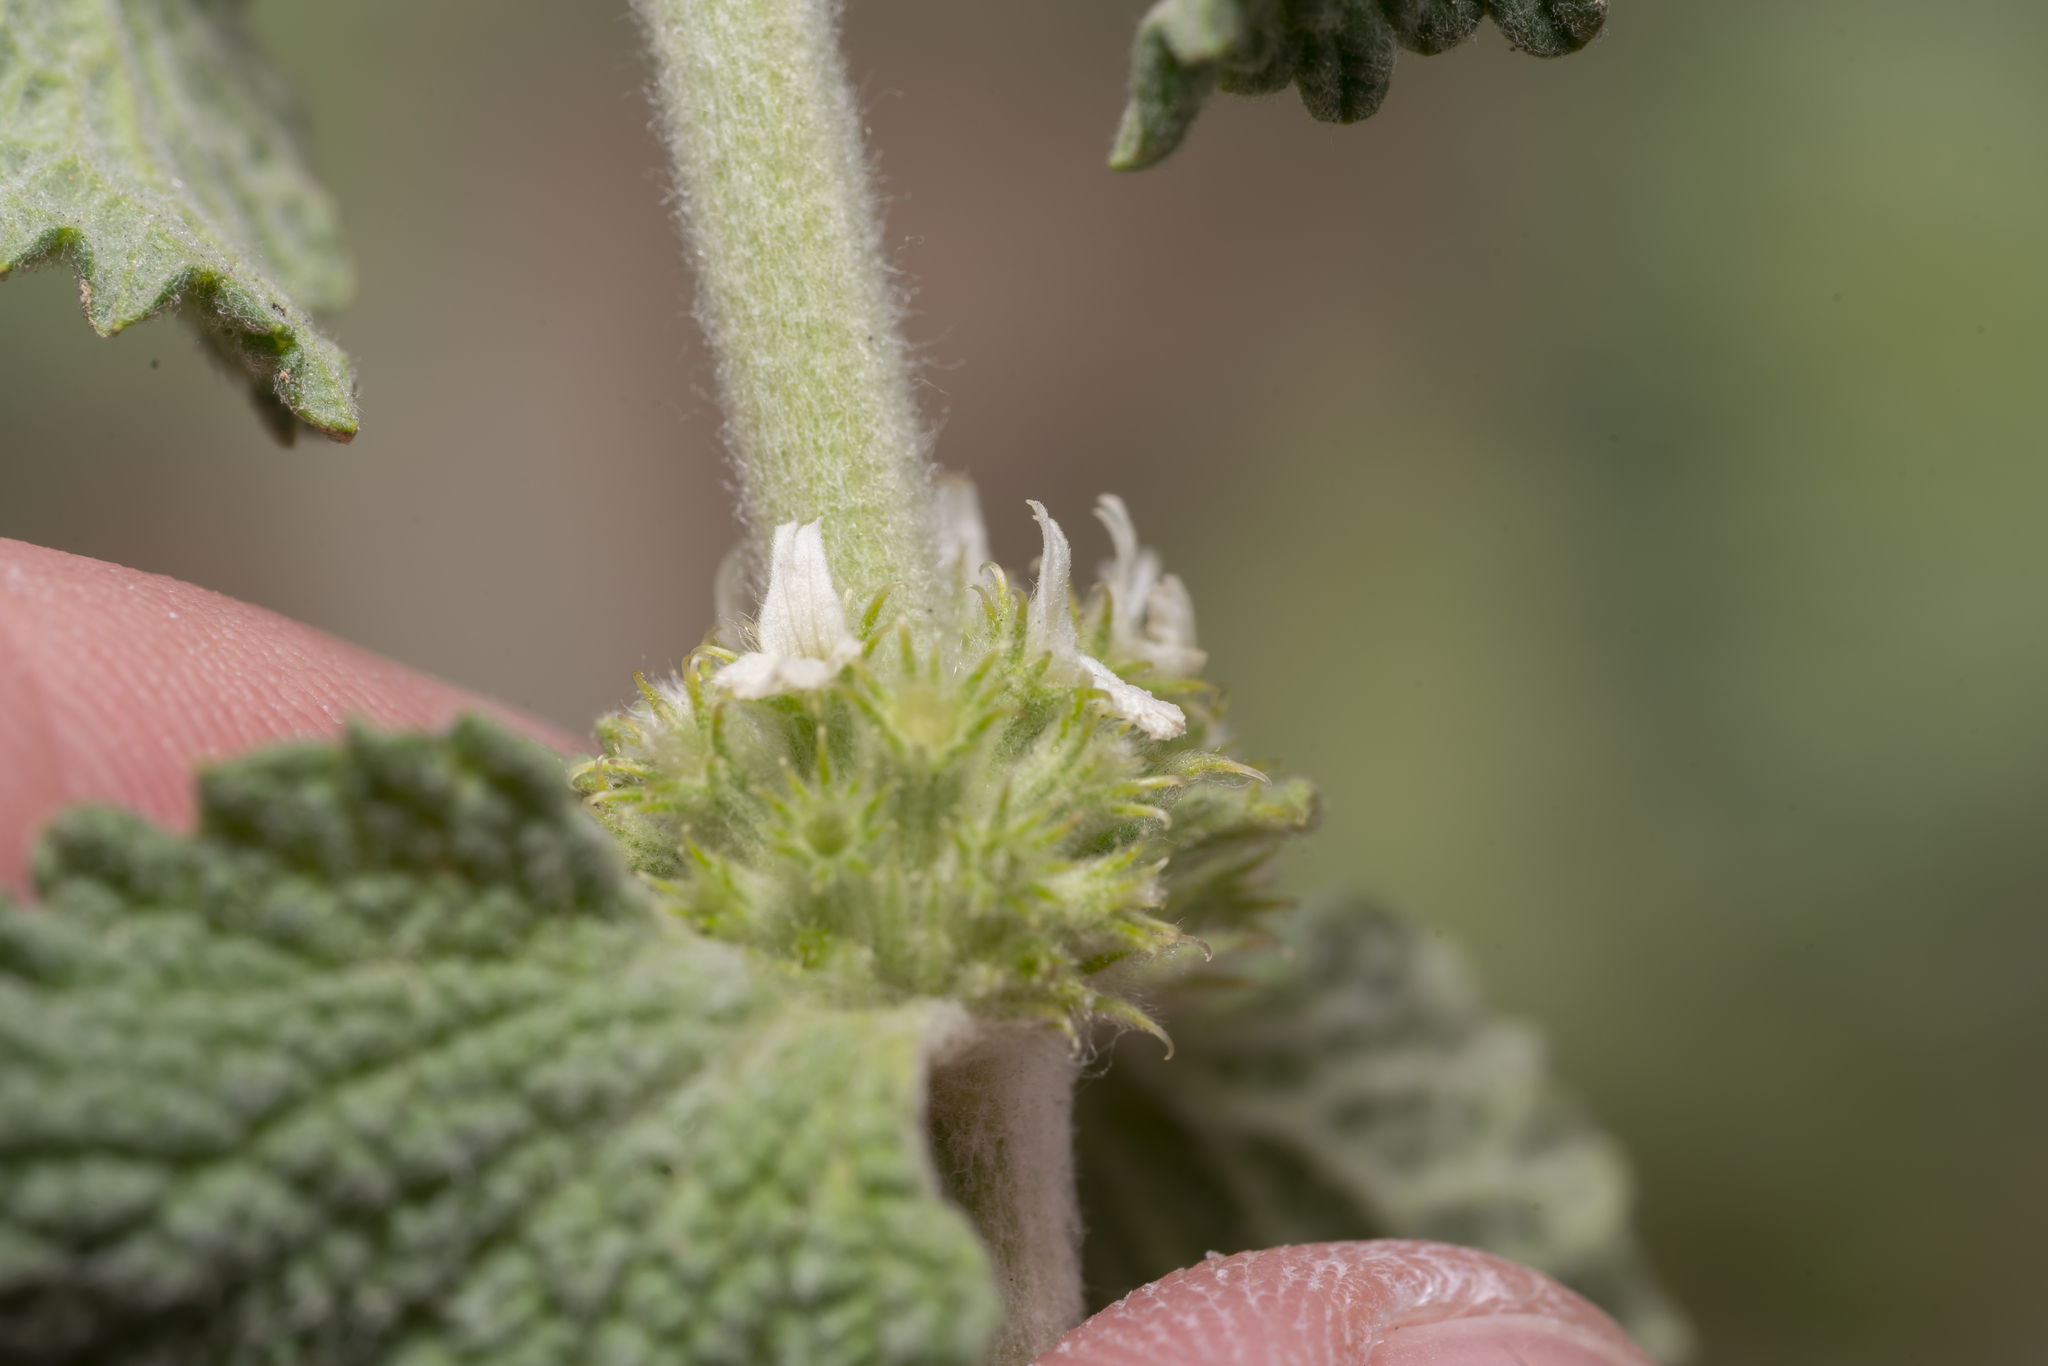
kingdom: Plantae
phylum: Tracheophyta
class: Magnoliopsida
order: Lamiales
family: Lamiaceae
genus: Marrubium
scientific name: Marrubium vulgare
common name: Horehound
